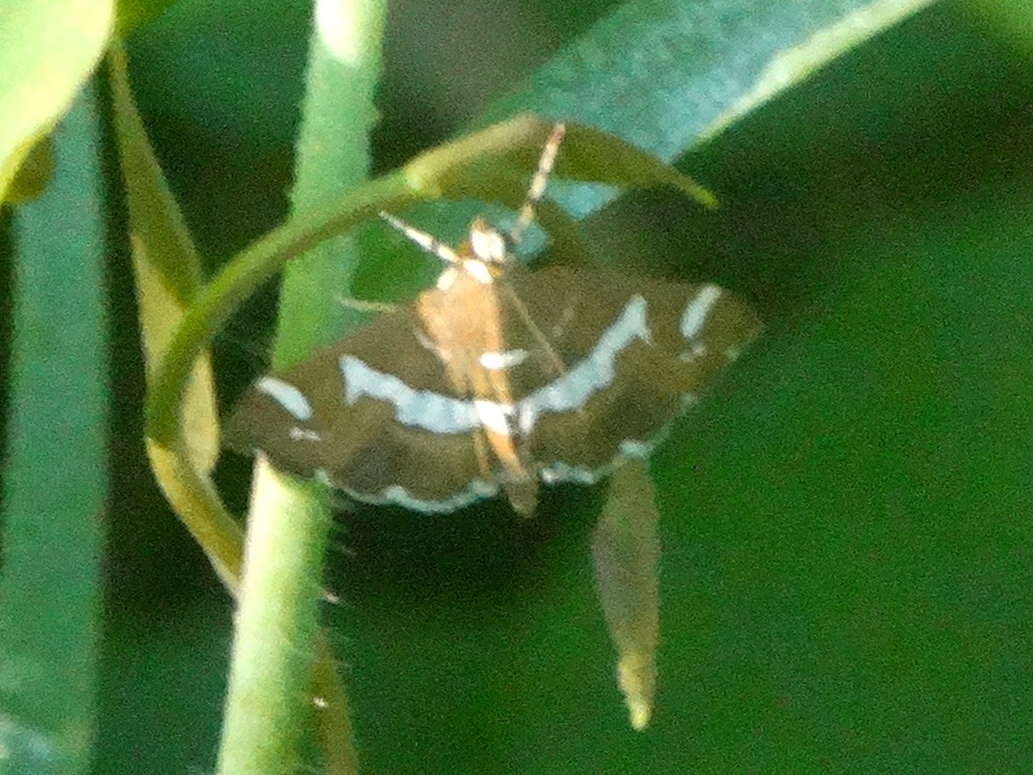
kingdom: Animalia
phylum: Arthropoda
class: Insecta
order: Lepidoptera
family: Crambidae
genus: Spoladea
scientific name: Spoladea recurvalis
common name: Beet webworm moth
